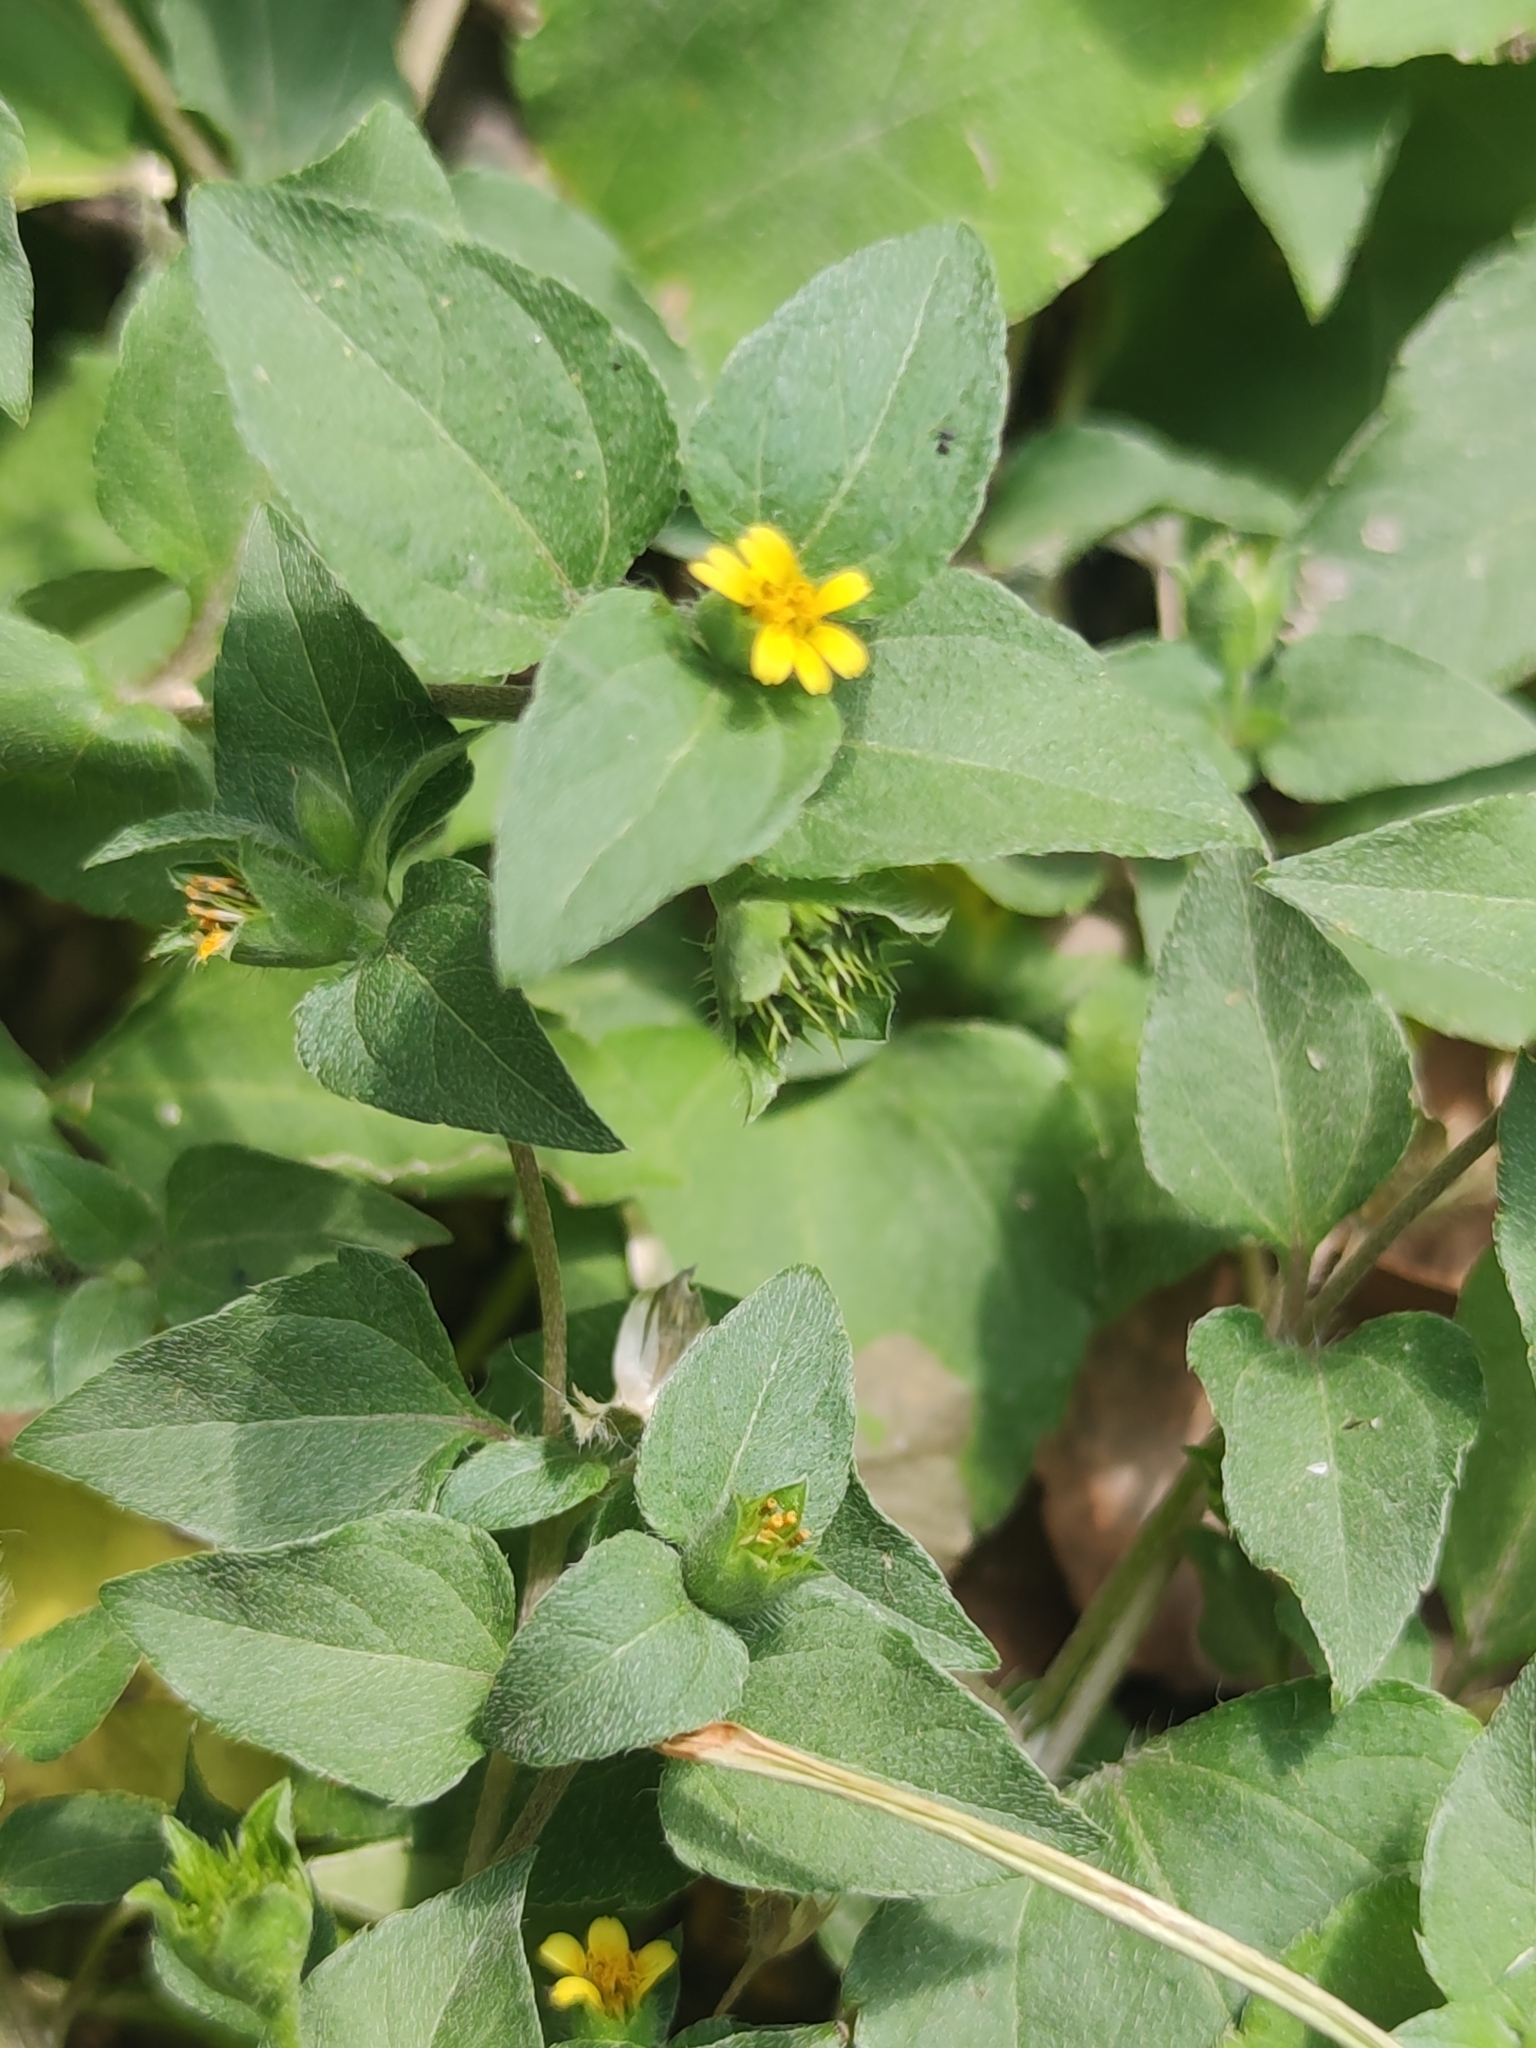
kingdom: Plantae
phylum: Tracheophyta
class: Magnoliopsida
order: Asterales
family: Asteraceae
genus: Calyptocarpus
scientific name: Calyptocarpus vialis
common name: Straggler daisy
